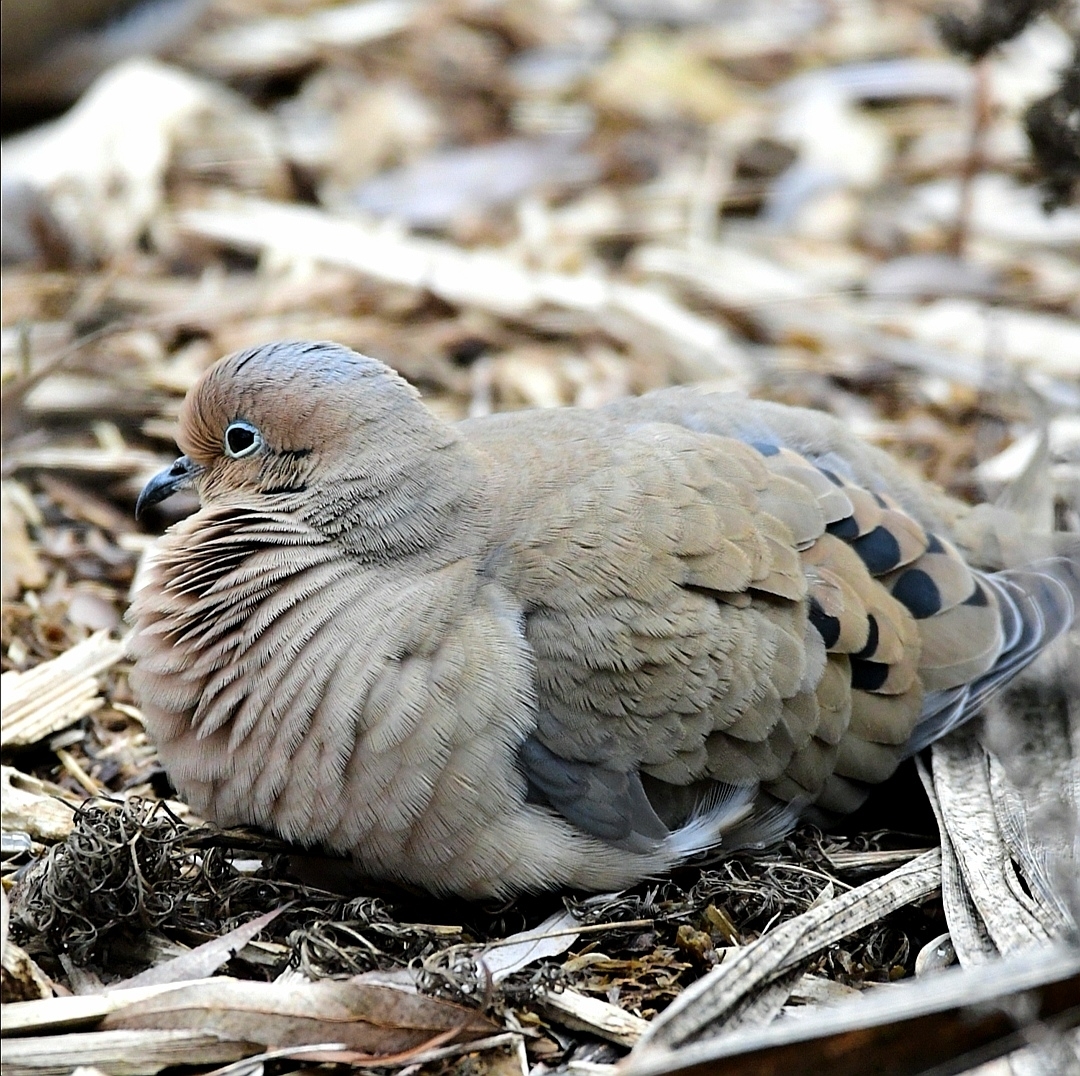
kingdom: Animalia
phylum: Chordata
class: Aves
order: Columbiformes
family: Columbidae
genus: Zenaida
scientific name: Zenaida macroura
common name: Mourning dove
